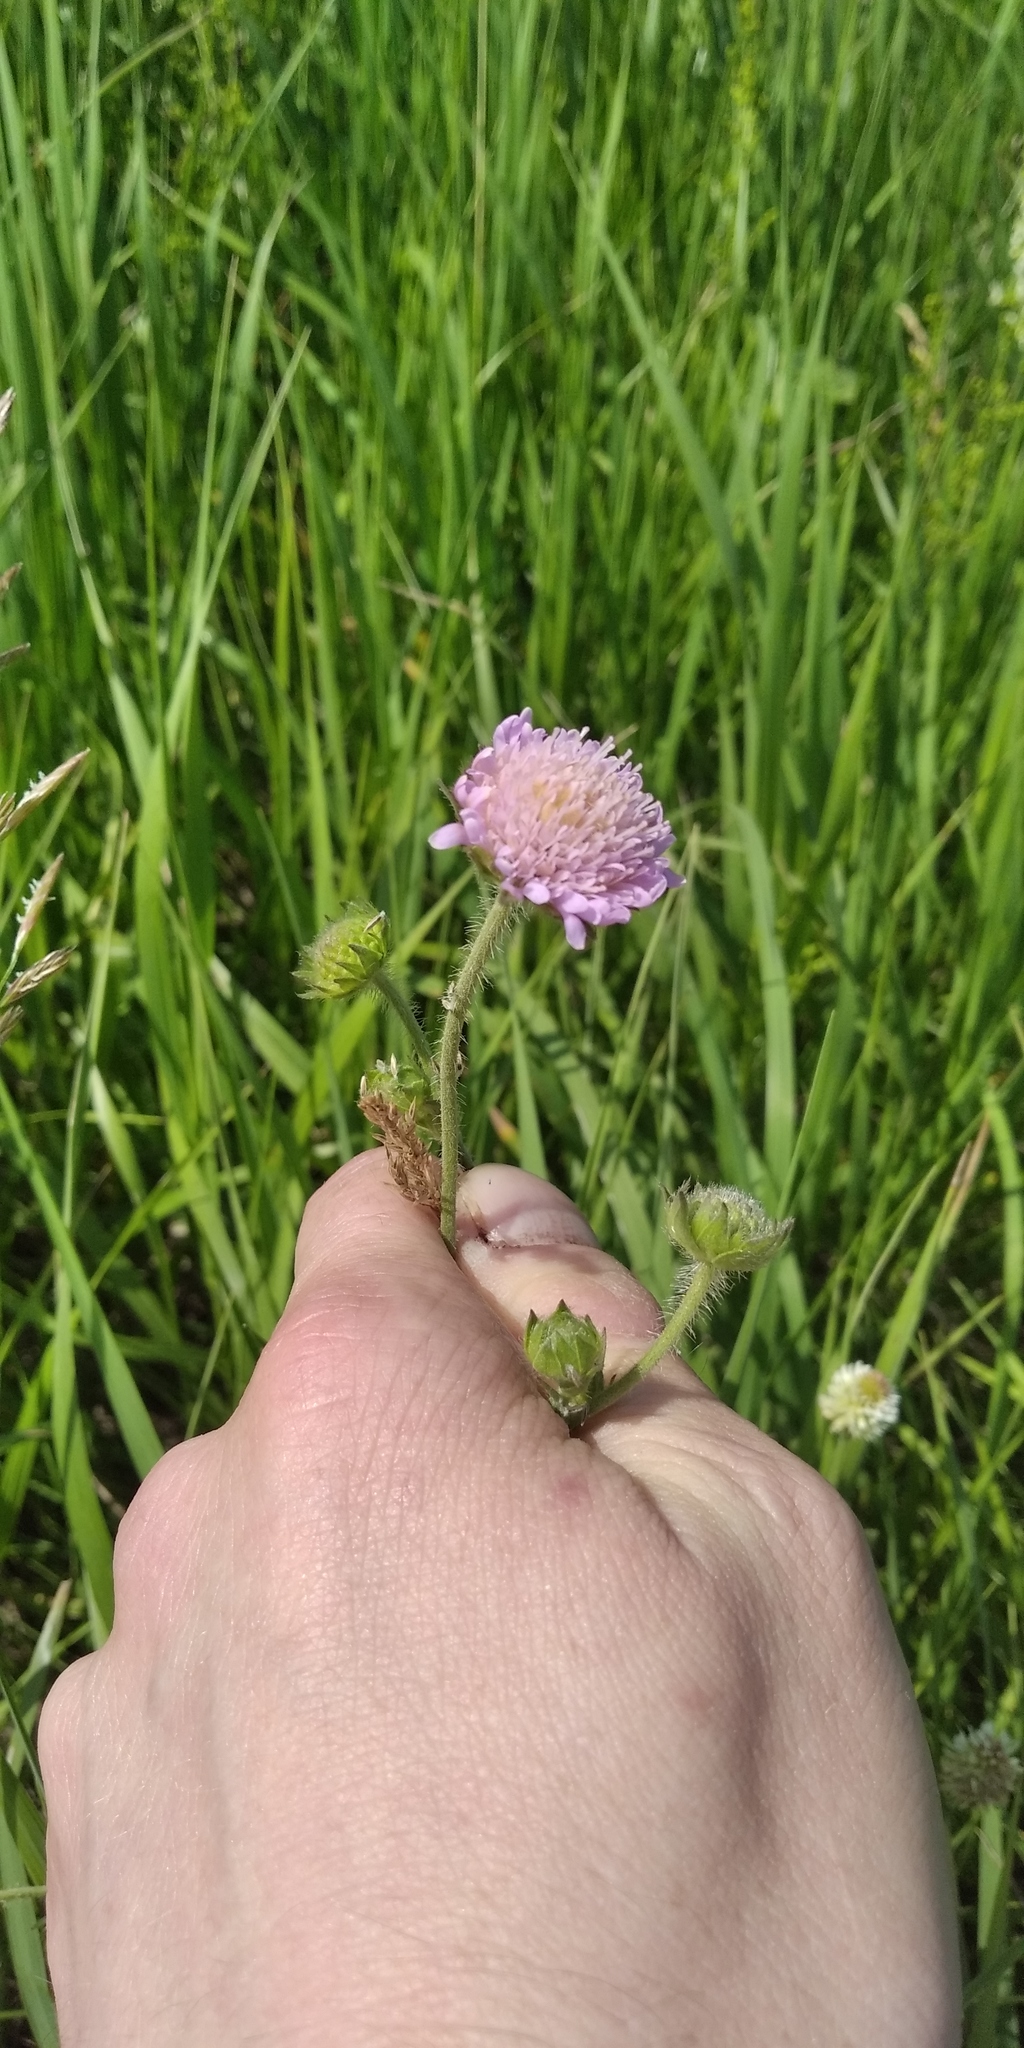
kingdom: Plantae
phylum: Tracheophyta
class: Magnoliopsida
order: Dipsacales
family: Caprifoliaceae
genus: Knautia
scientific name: Knautia arvensis
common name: Field scabiosa
